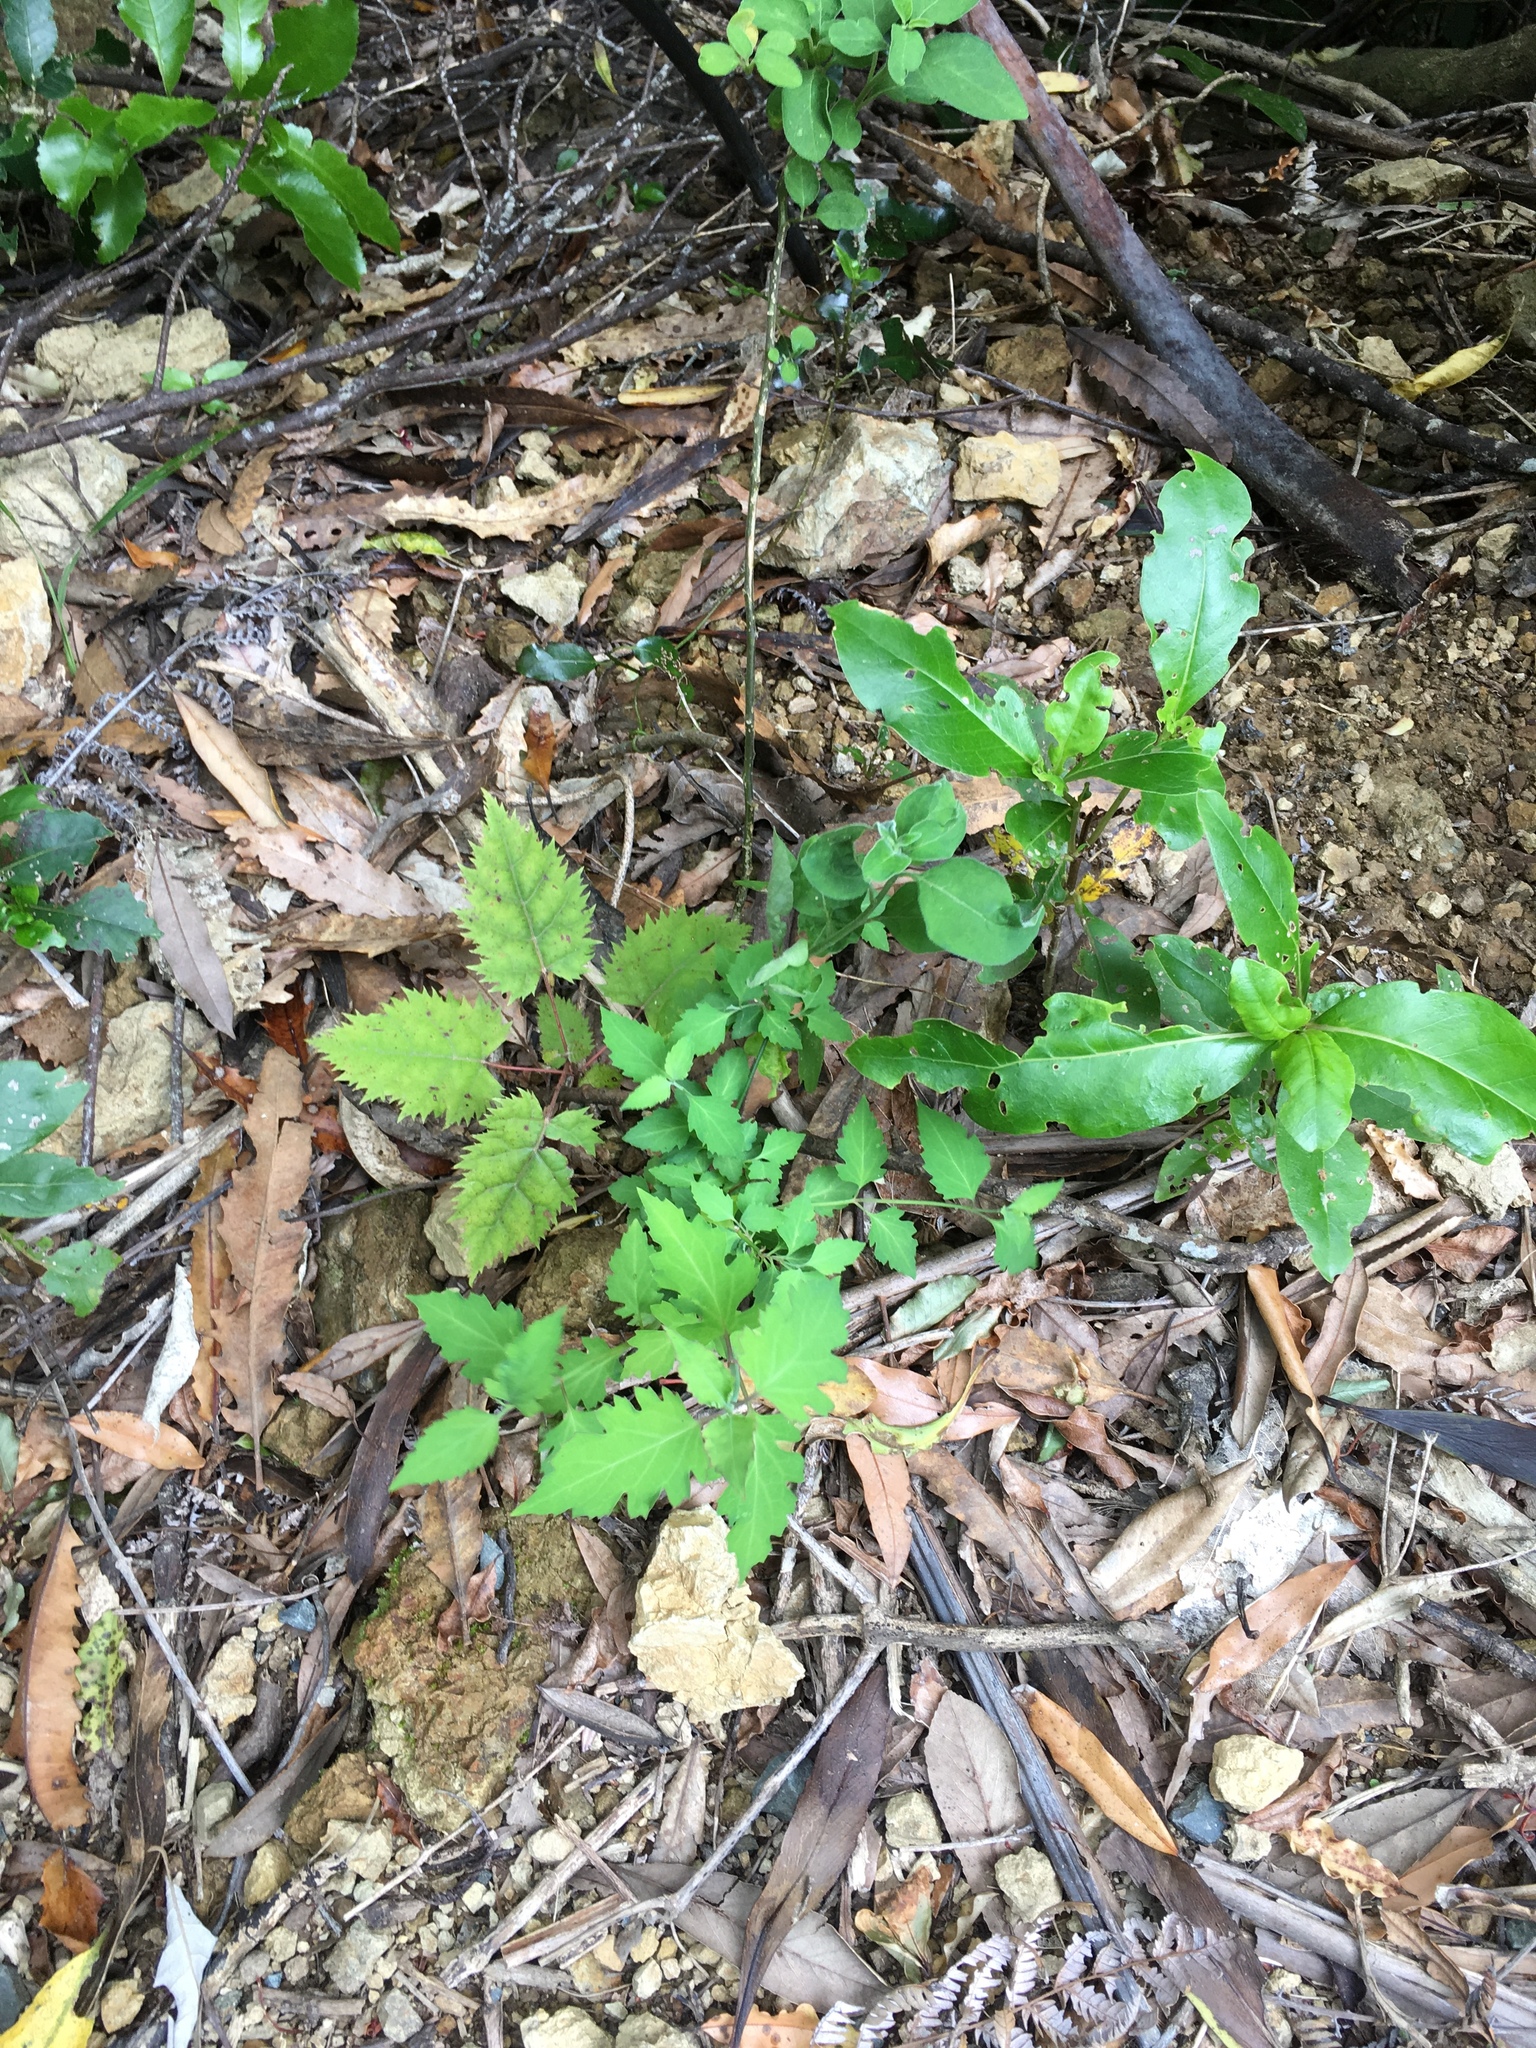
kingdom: Plantae
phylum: Tracheophyta
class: Magnoliopsida
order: Dipsacales
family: Caprifoliaceae
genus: Leycesteria
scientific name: Leycesteria formosa
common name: Himalayan honeysuckle
